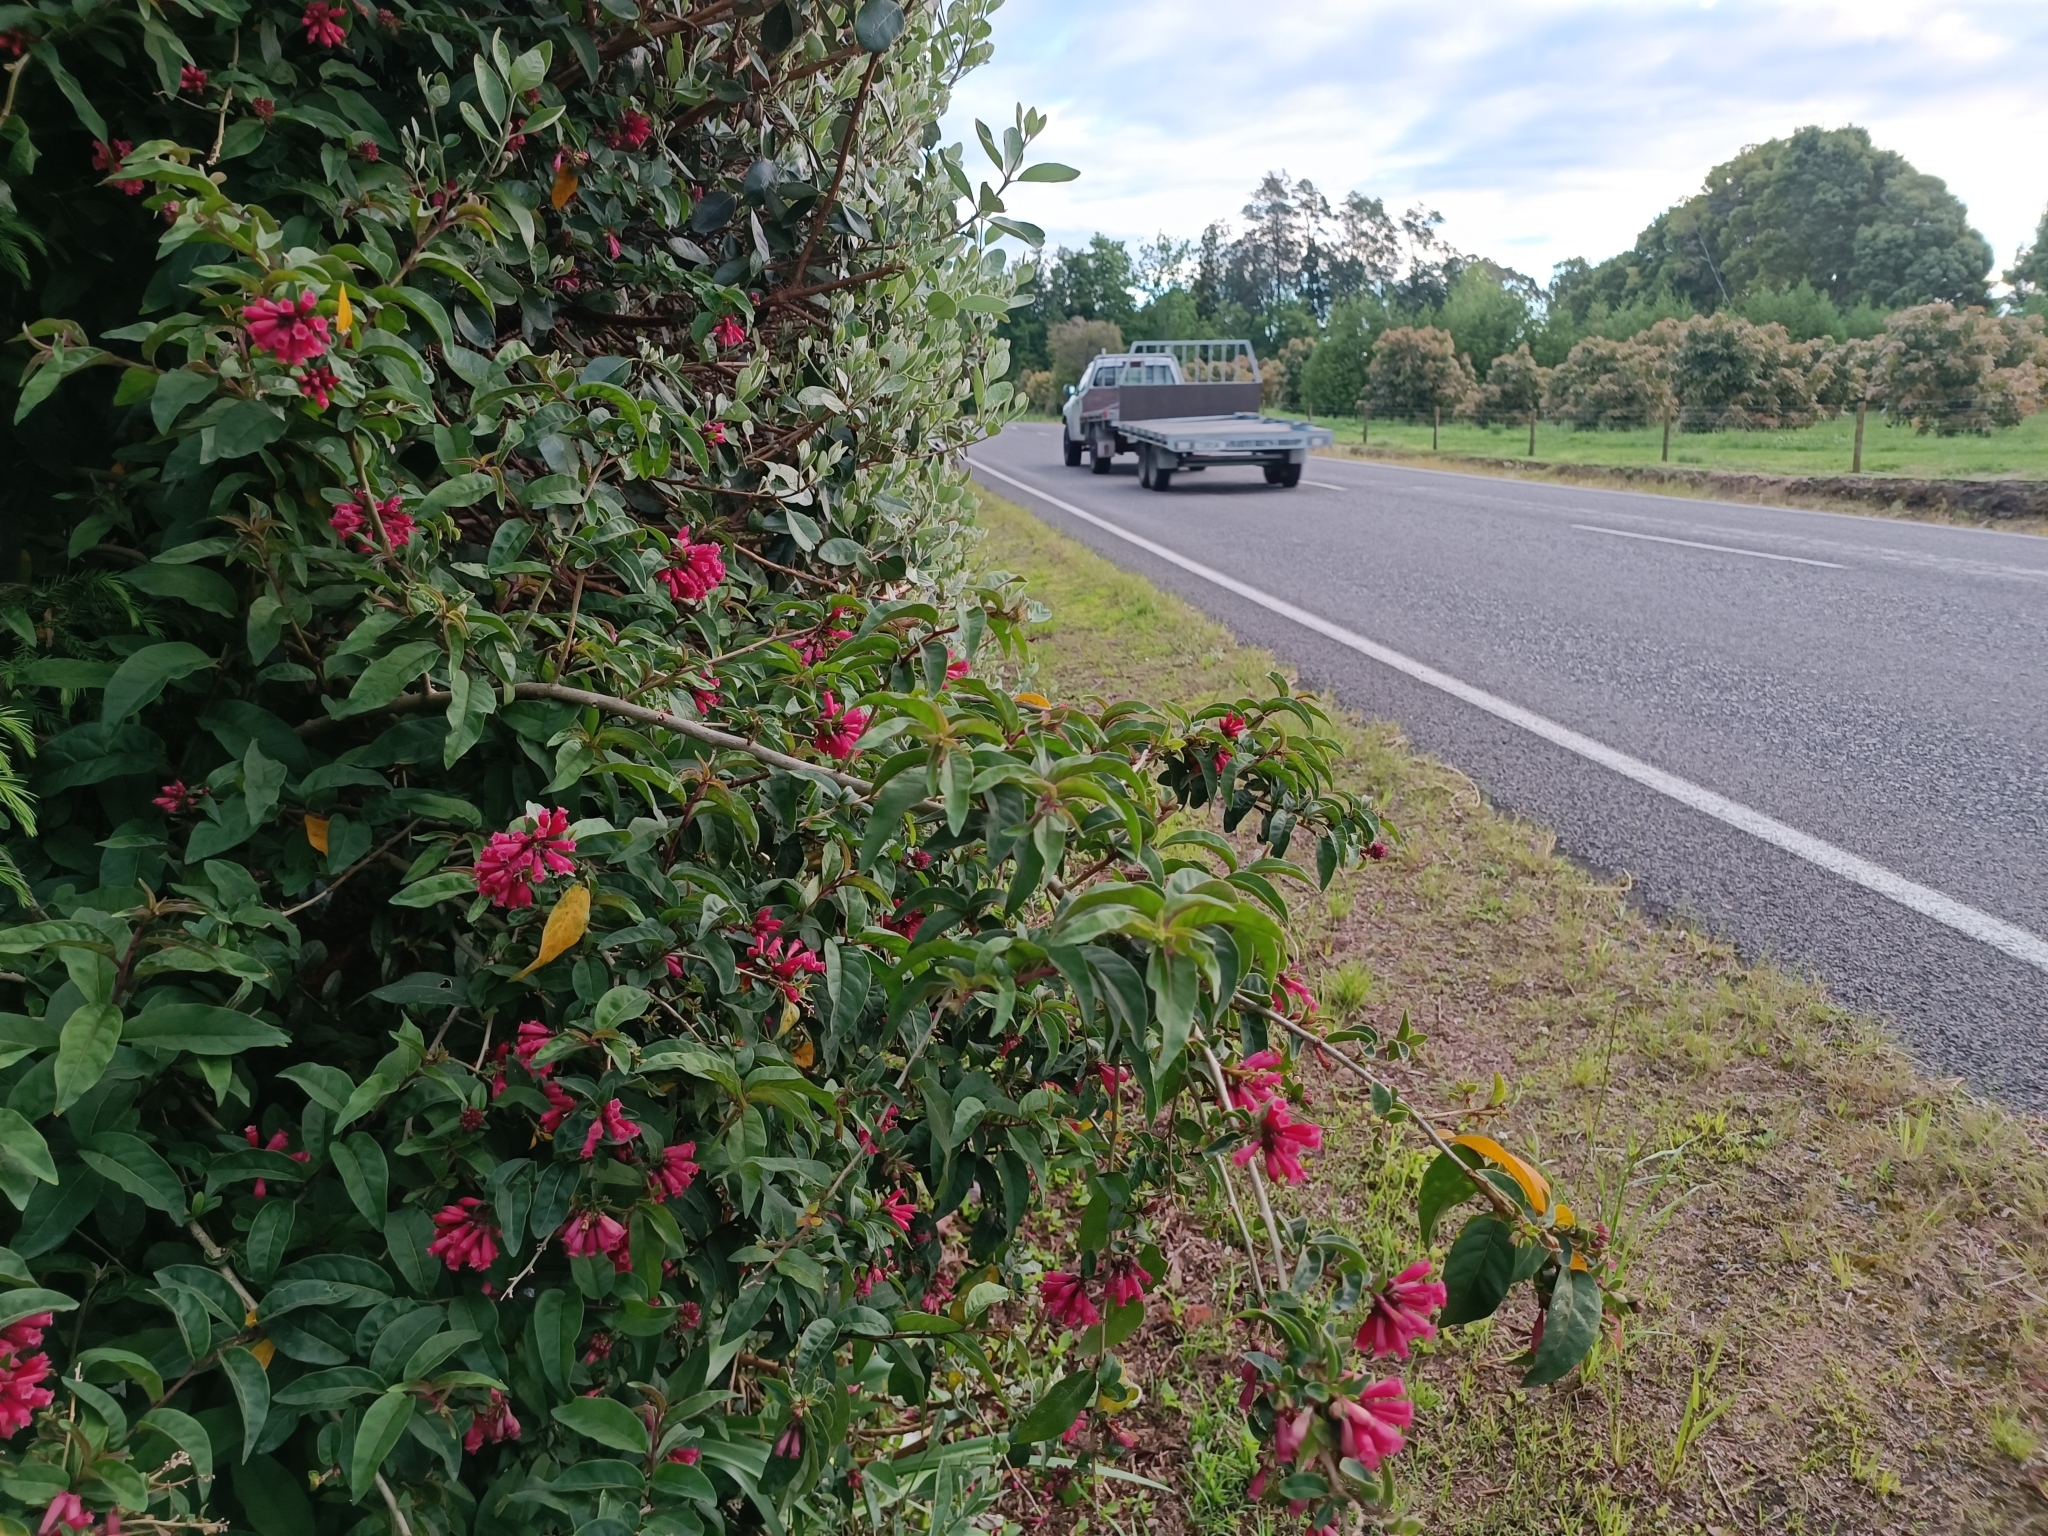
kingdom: Plantae
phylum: Tracheophyta
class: Magnoliopsida
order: Solanales
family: Solanaceae
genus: Cestrum
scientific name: Cestrum elegans
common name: Crimson cestrum
